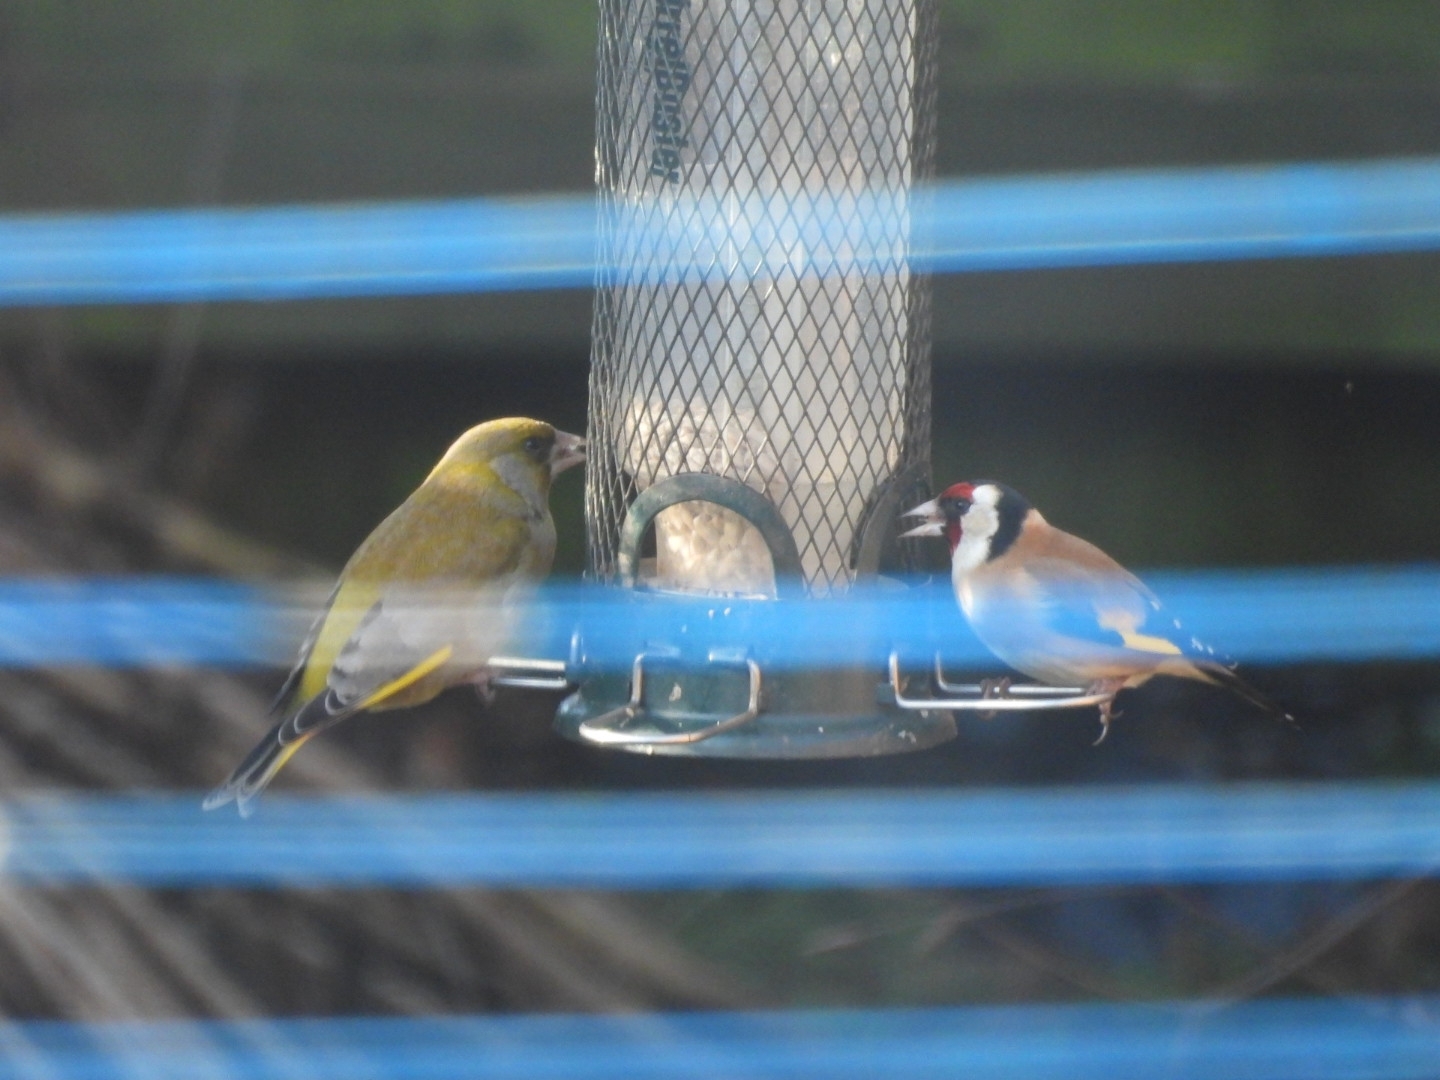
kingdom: Animalia
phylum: Chordata
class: Aves
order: Passeriformes
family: Fringillidae
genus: Carduelis
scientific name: Carduelis carduelis
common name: European goldfinch
